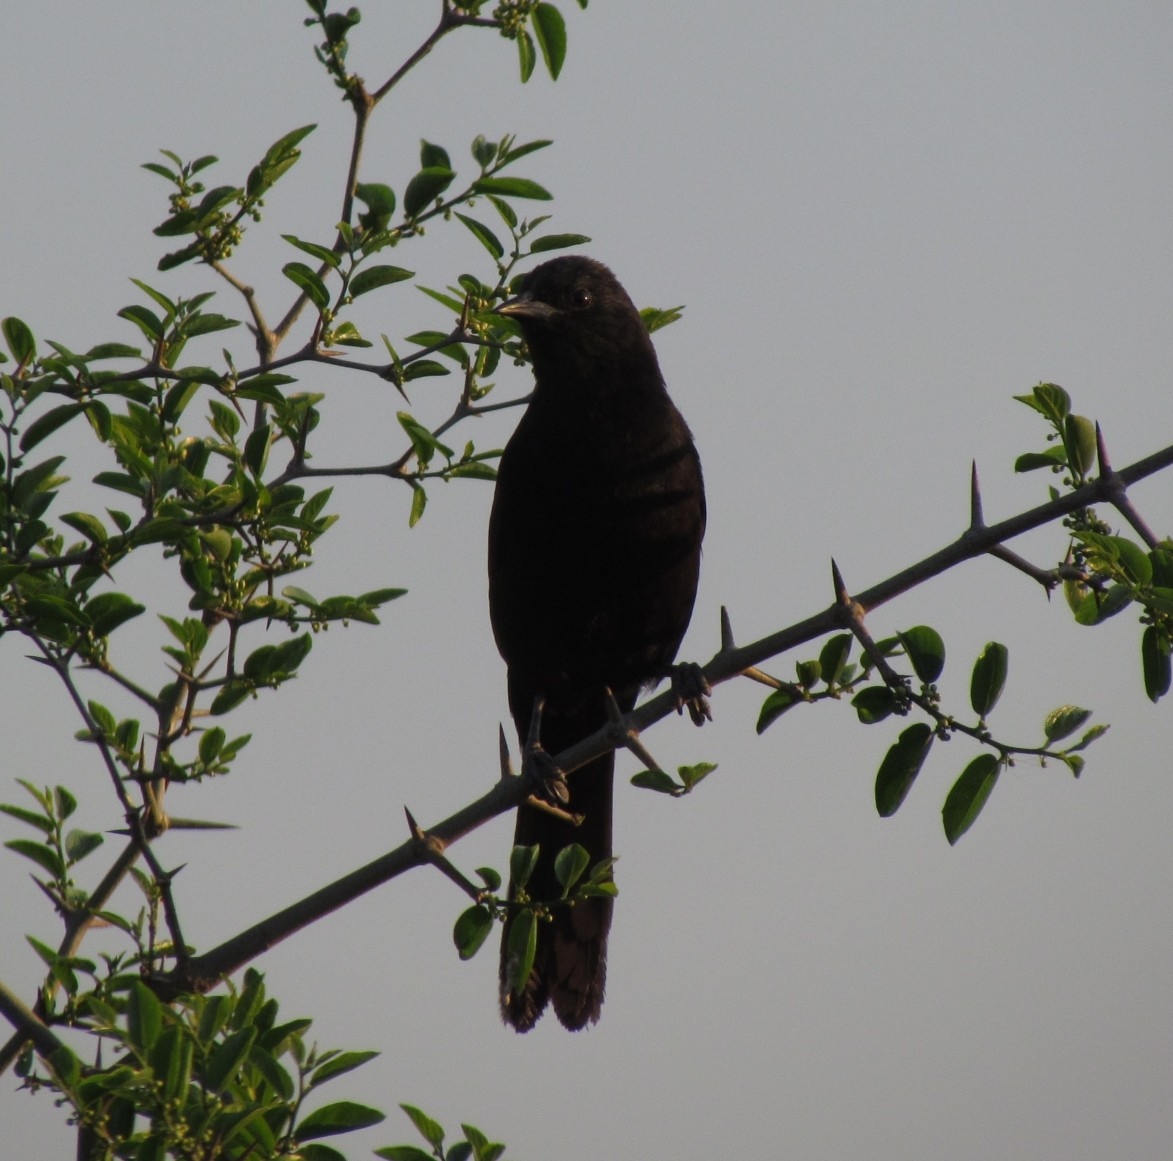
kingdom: Animalia
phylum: Chordata
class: Aves
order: Passeriformes
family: Icteridae
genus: Icterus
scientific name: Icterus cayanensis
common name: Epaulet oriole
